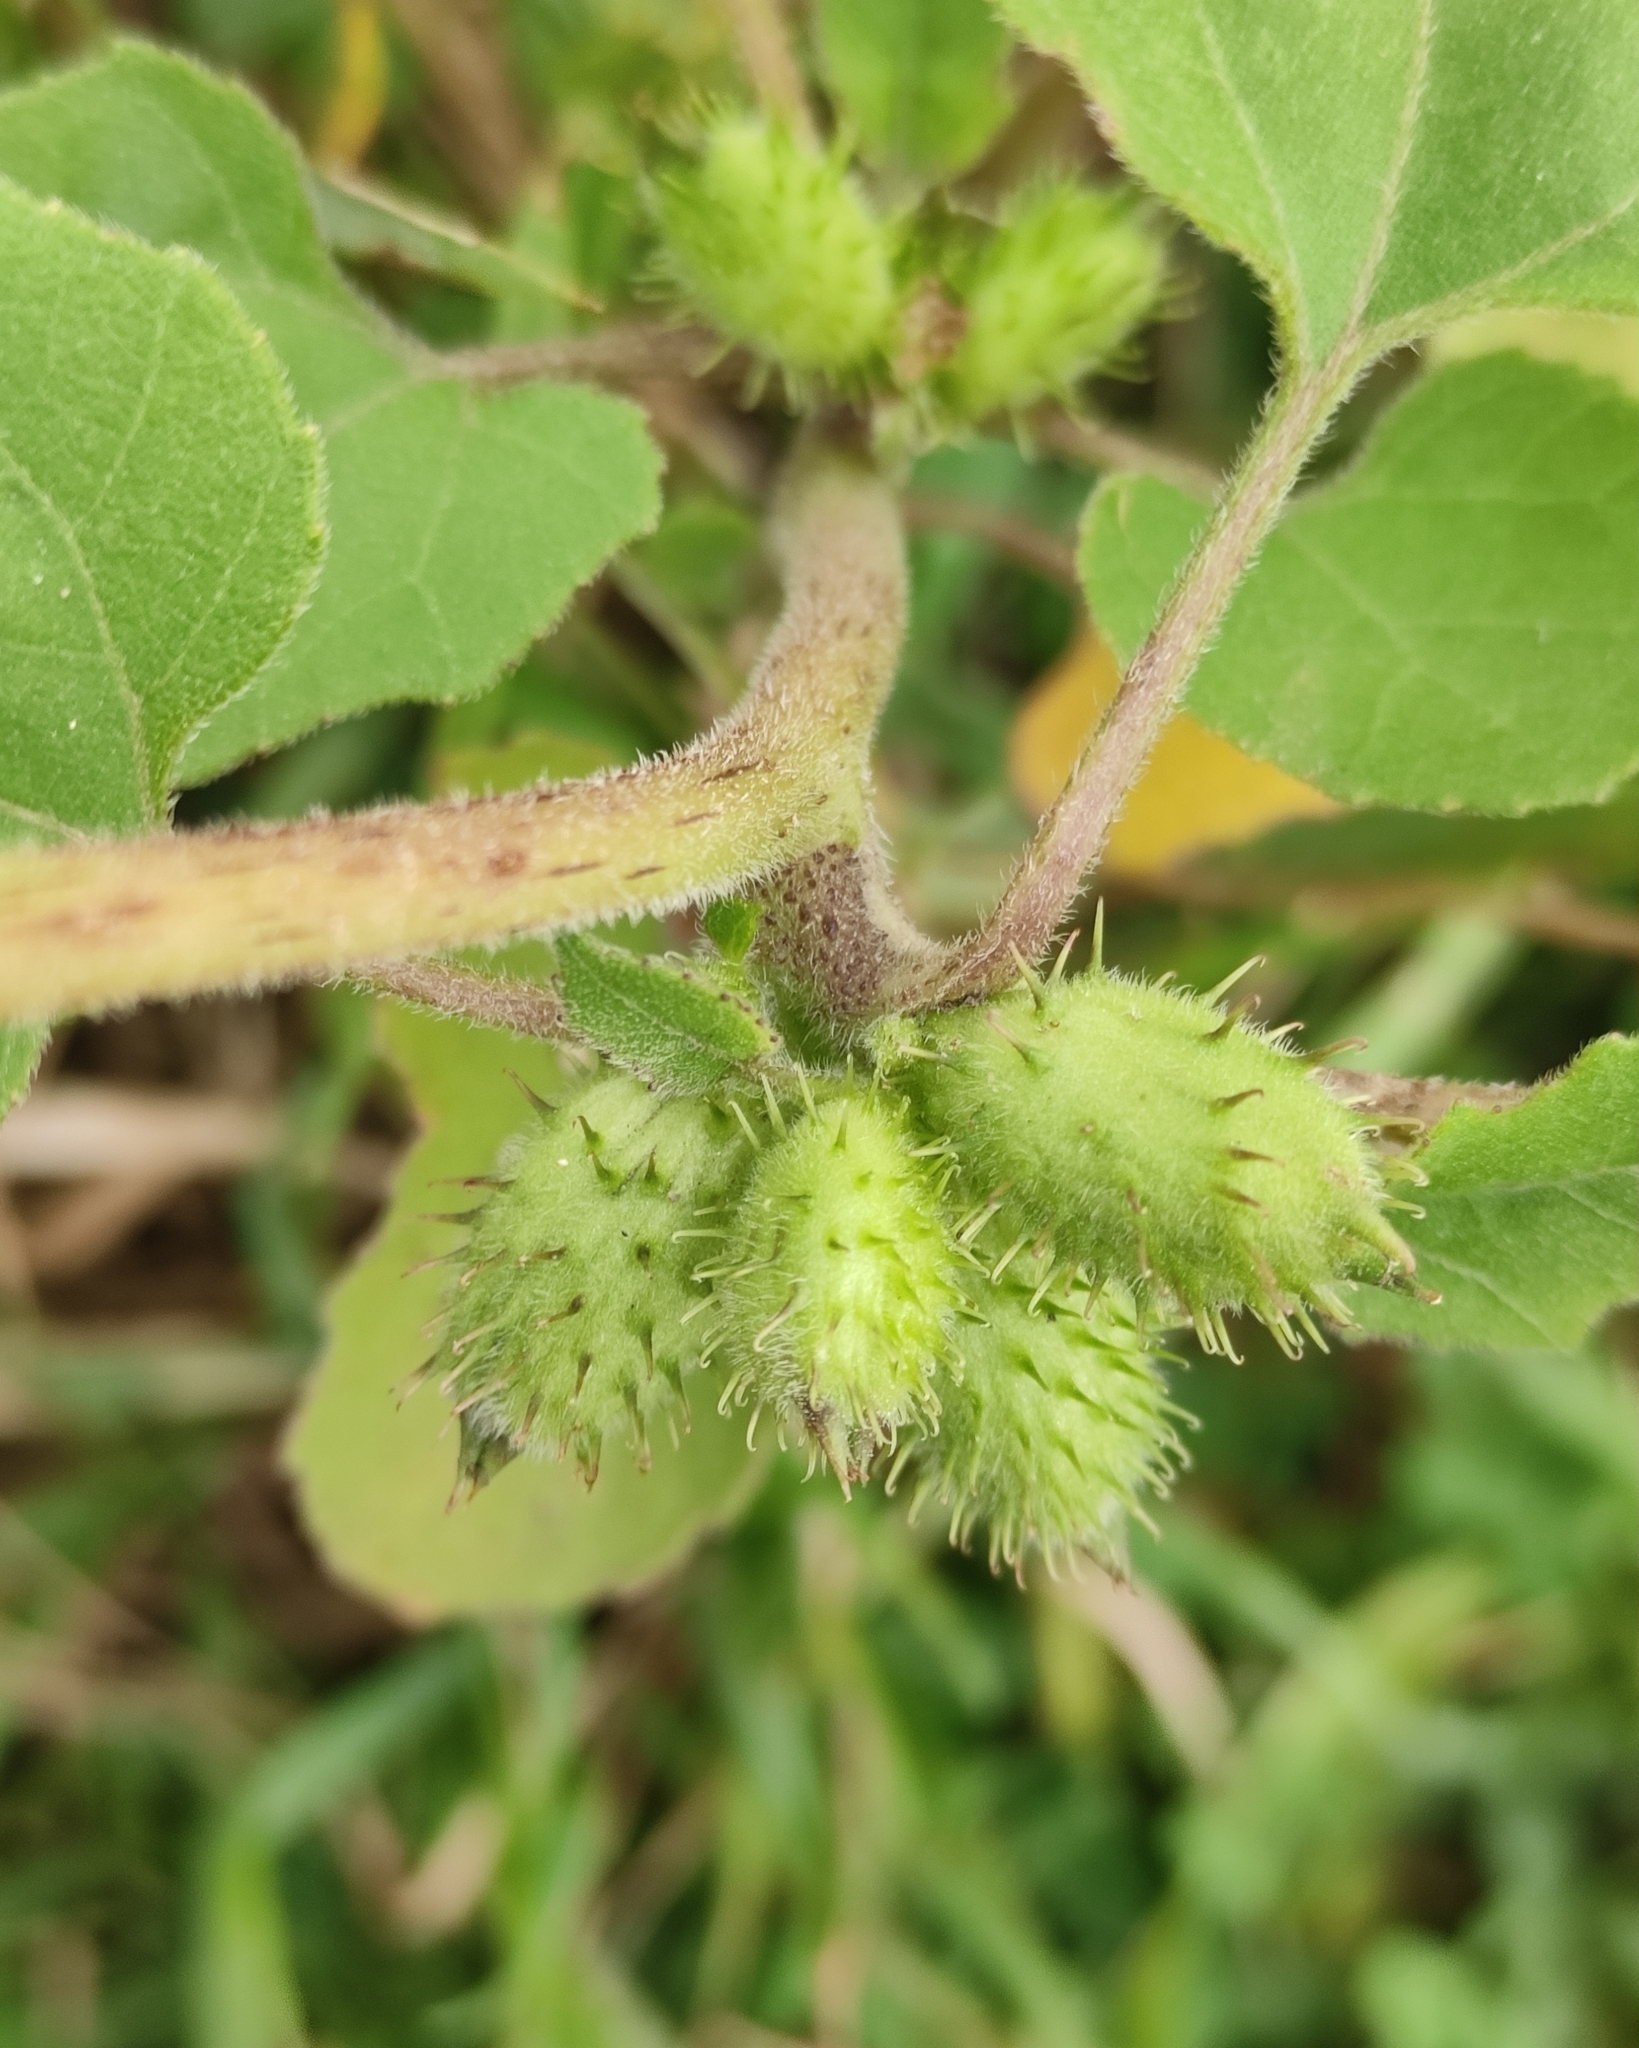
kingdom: Plantae
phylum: Tracheophyta
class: Magnoliopsida
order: Asterales
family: Asteraceae
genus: Xanthium
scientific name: Xanthium strumarium
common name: Rough cocklebur
